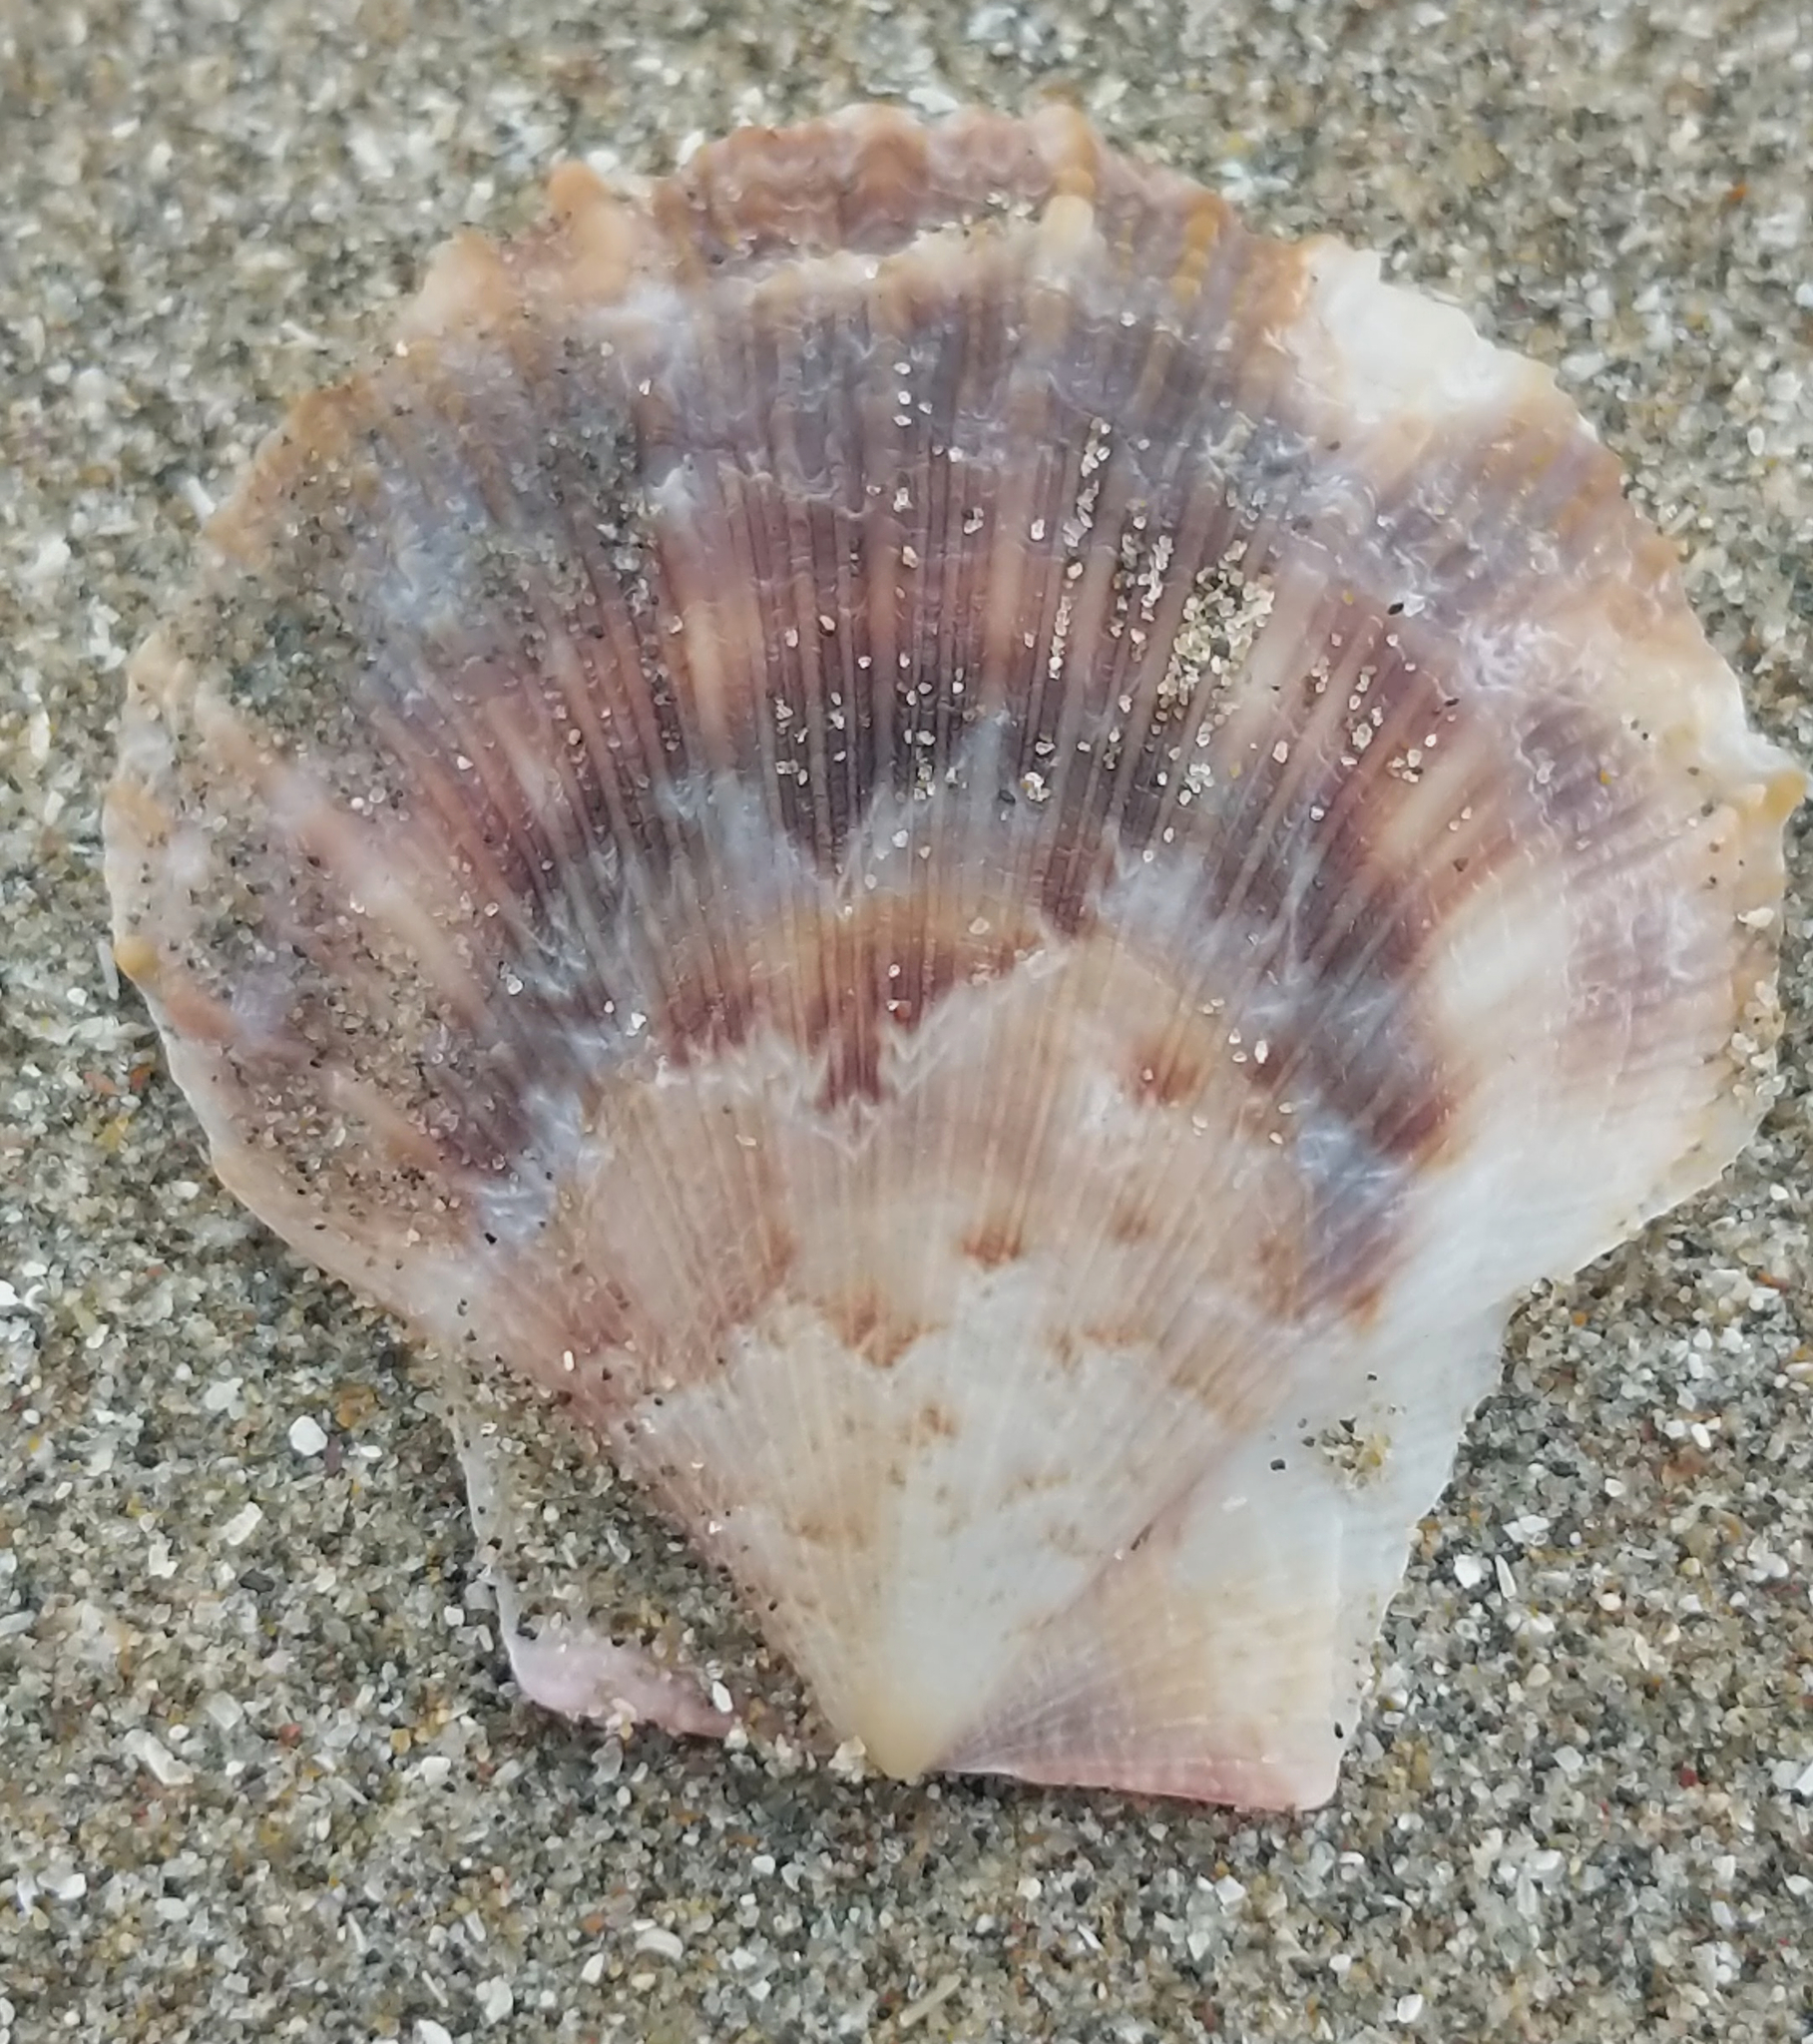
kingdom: Animalia
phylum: Mollusca
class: Bivalvia
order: Pectinida
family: Pectinidae
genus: Crassadoma
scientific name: Crassadoma gigantea
